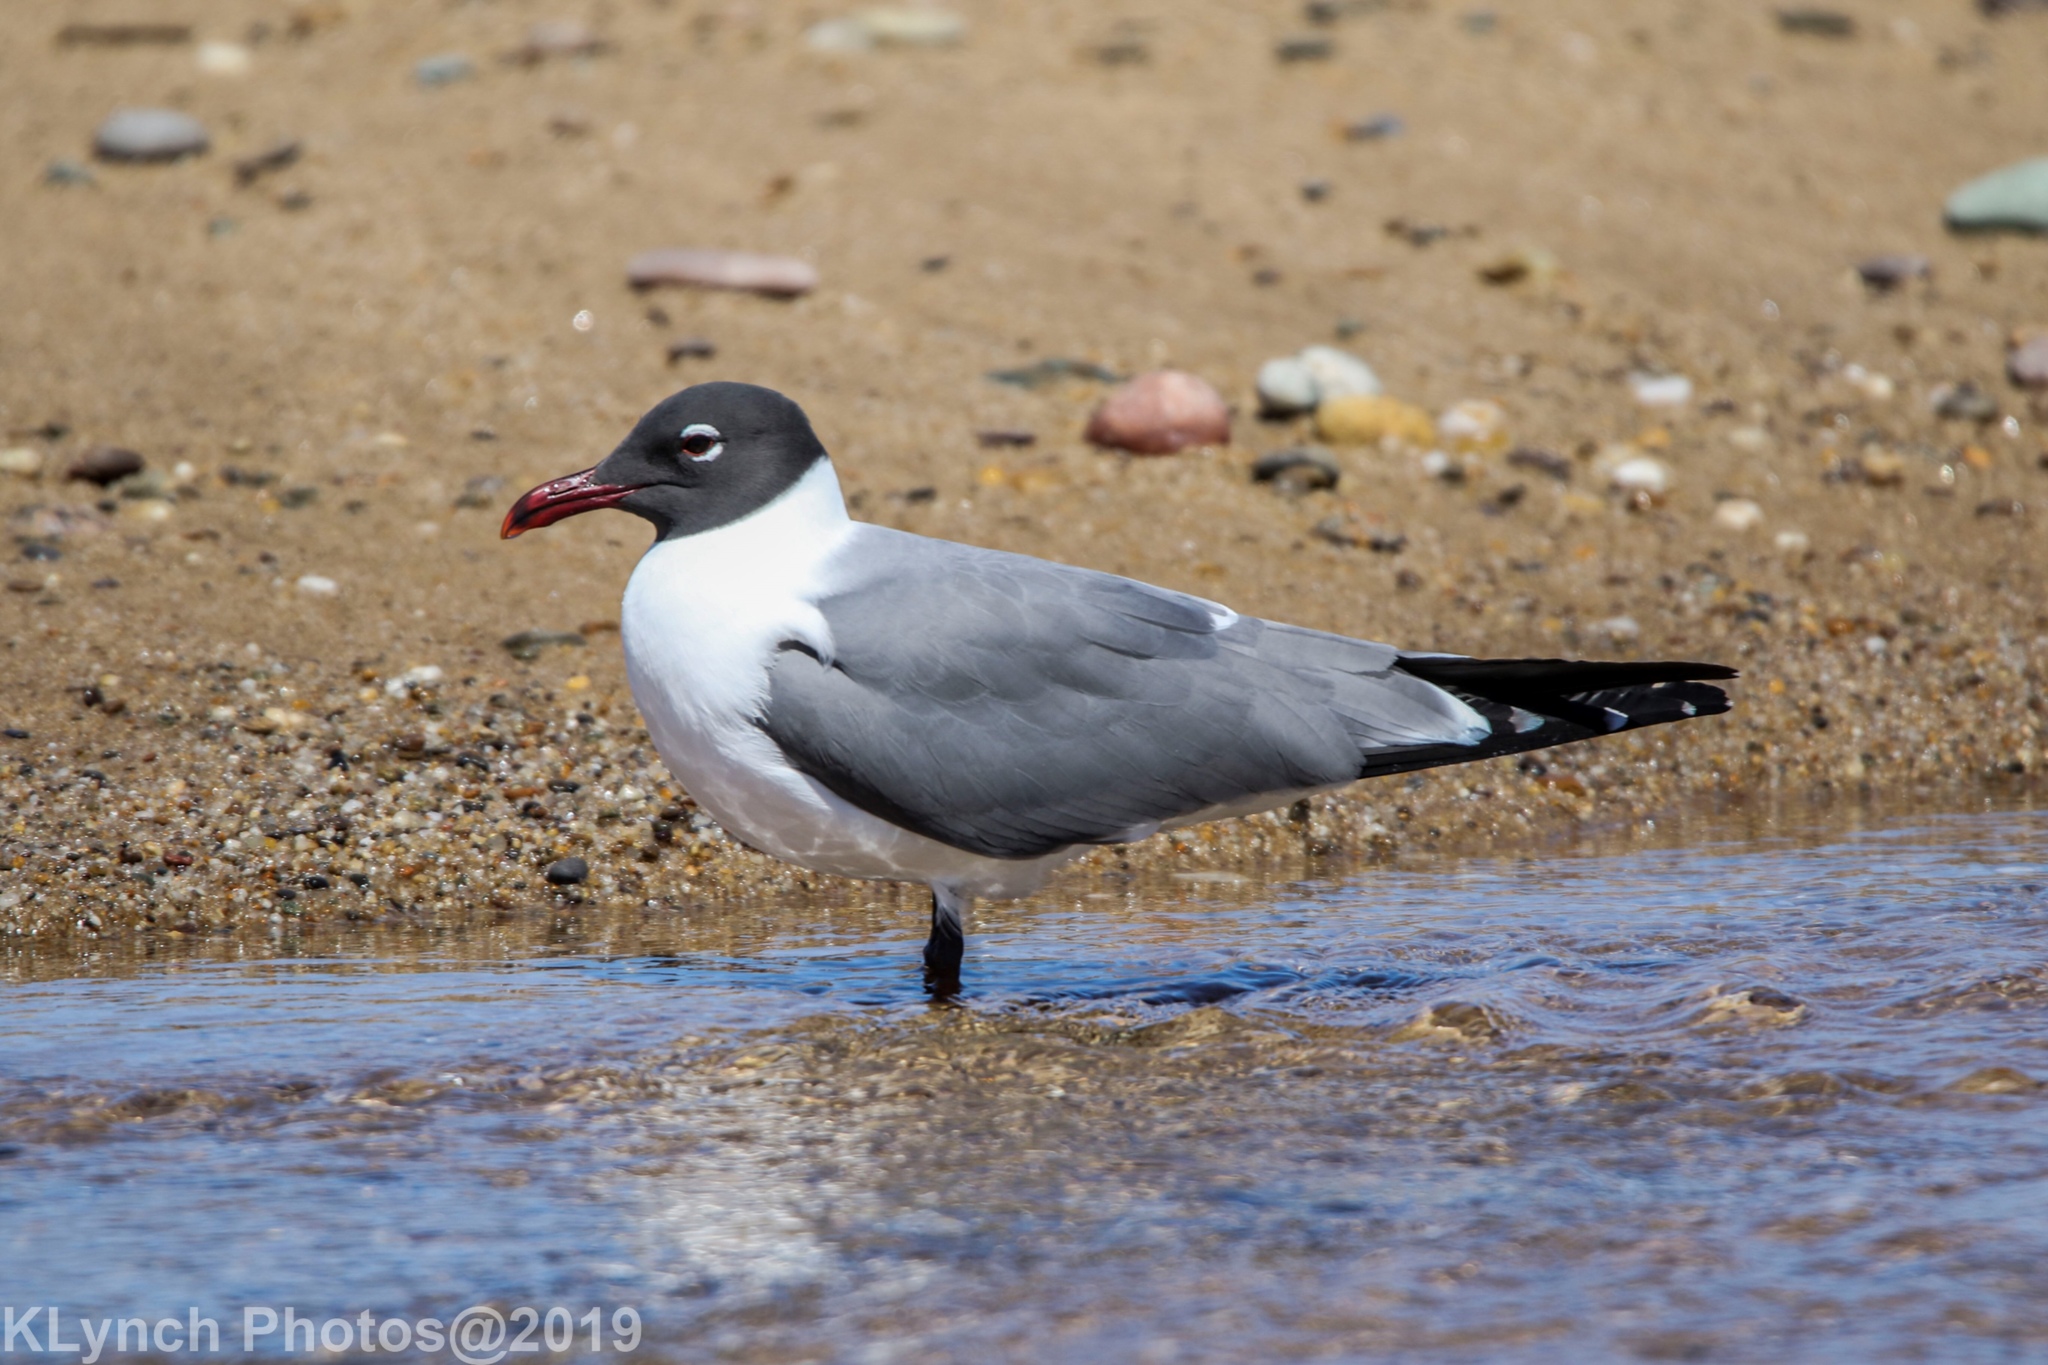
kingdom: Animalia
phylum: Chordata
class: Aves
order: Charadriiformes
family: Laridae
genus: Leucophaeus
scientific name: Leucophaeus atricilla
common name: Laughing gull
